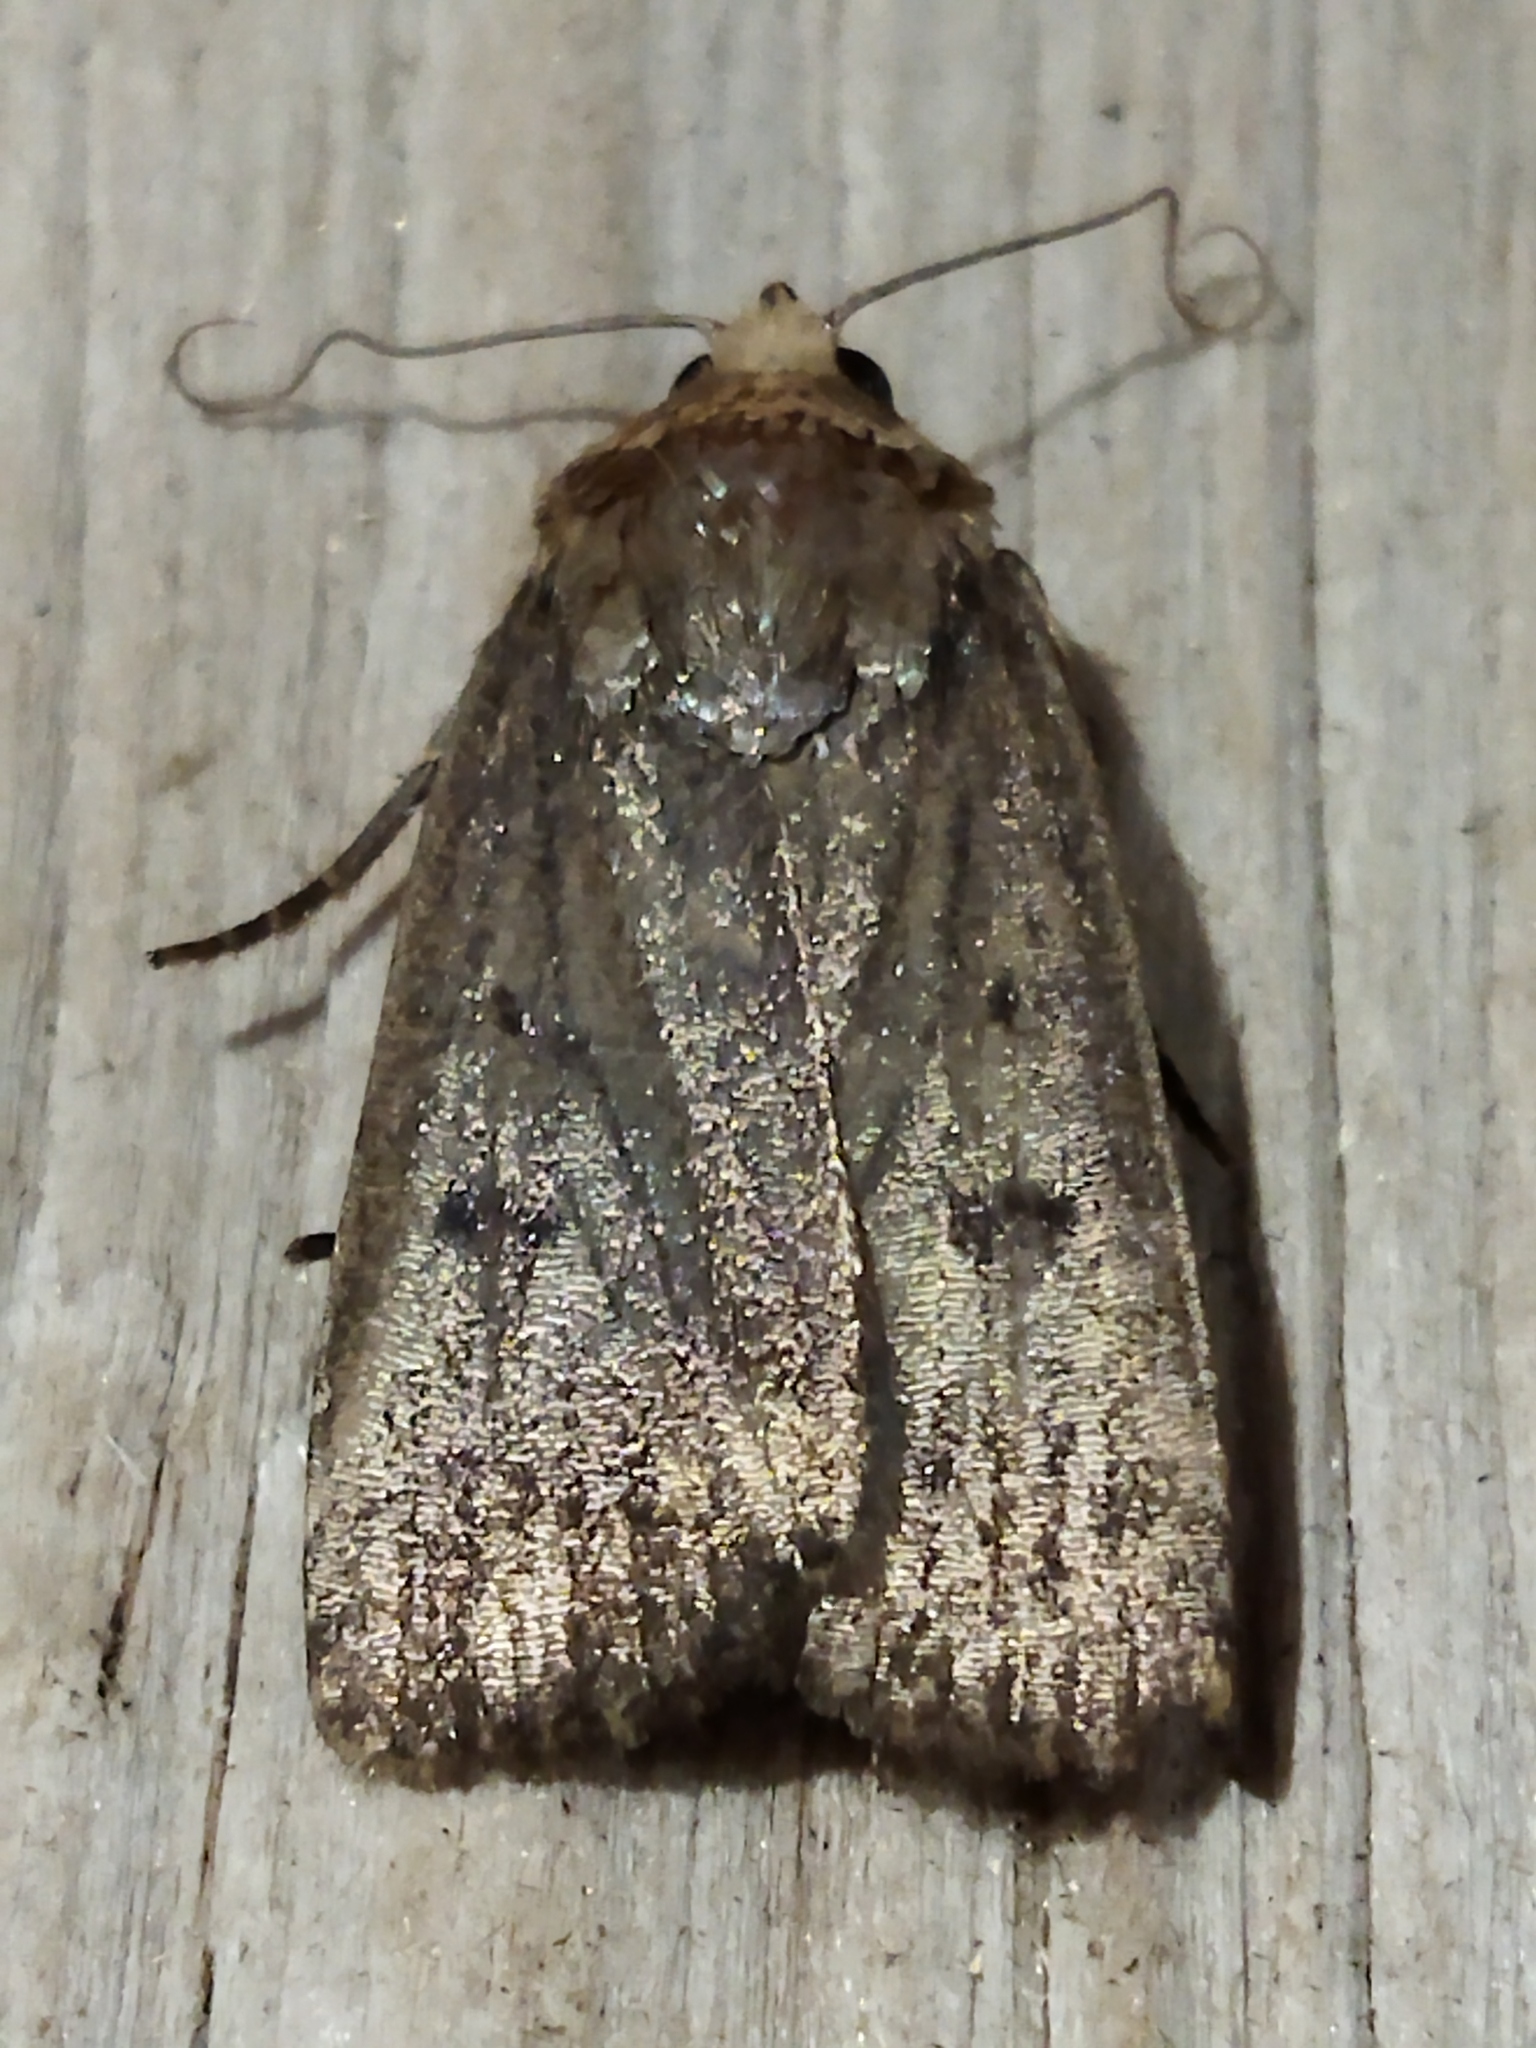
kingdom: Animalia
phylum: Arthropoda
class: Insecta
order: Lepidoptera
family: Noctuidae
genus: Amphipyra
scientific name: Amphipyra tragopoginis
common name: Mouse moth
